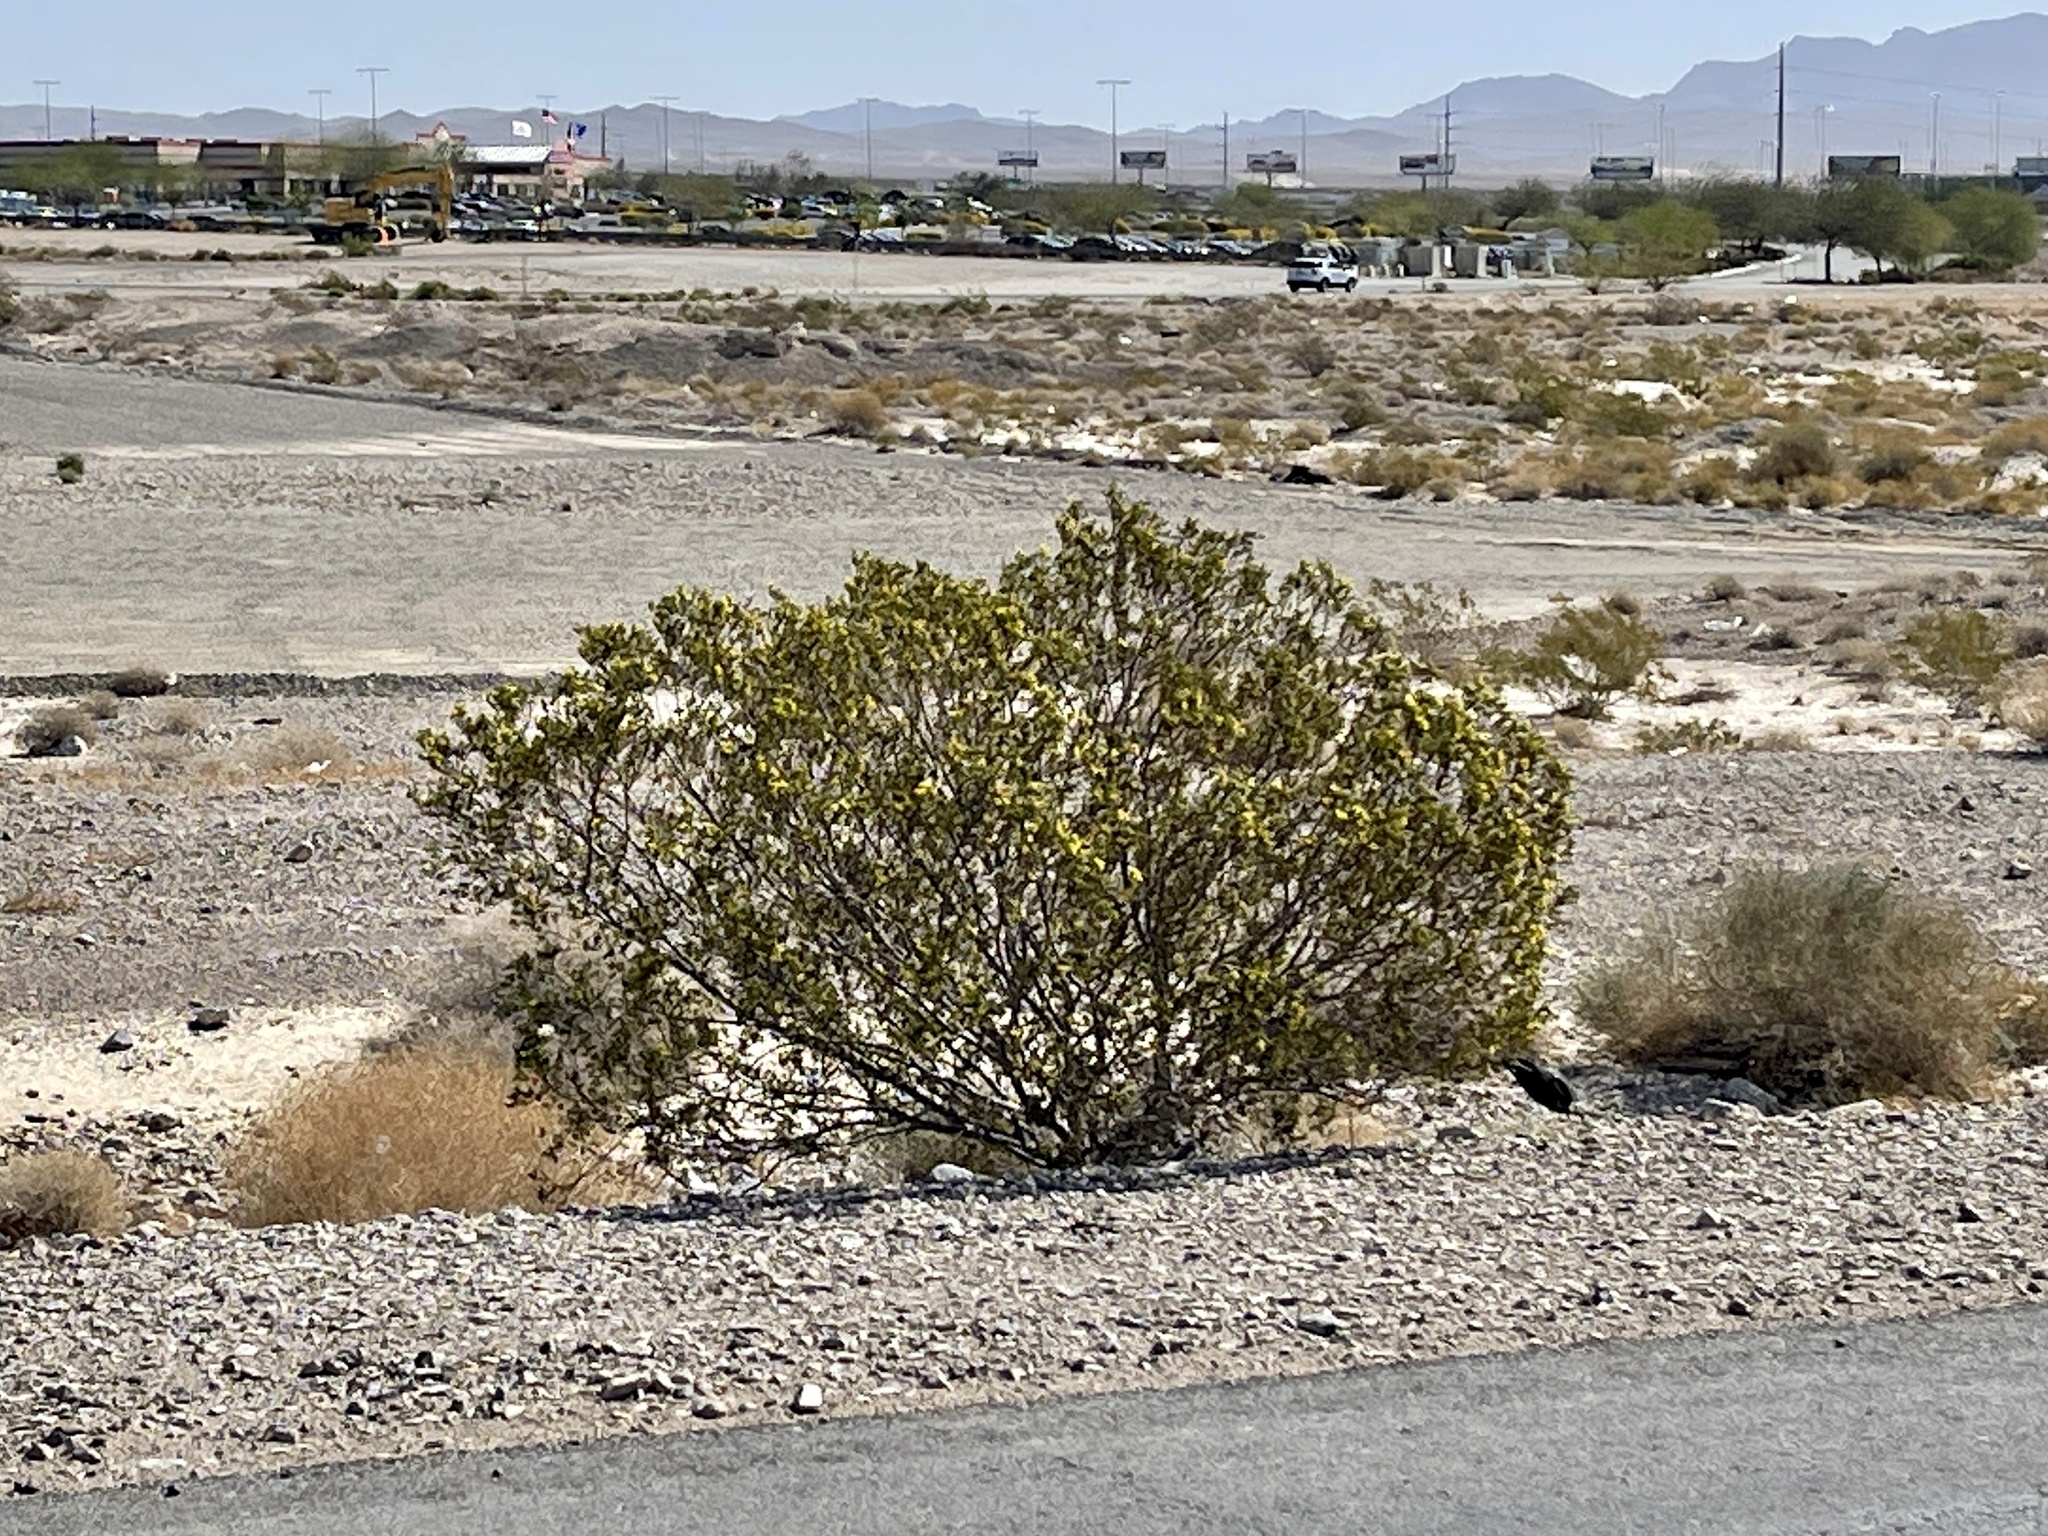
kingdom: Plantae
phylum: Tracheophyta
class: Magnoliopsida
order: Zygophyllales
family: Zygophyllaceae
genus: Larrea
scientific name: Larrea tridentata
